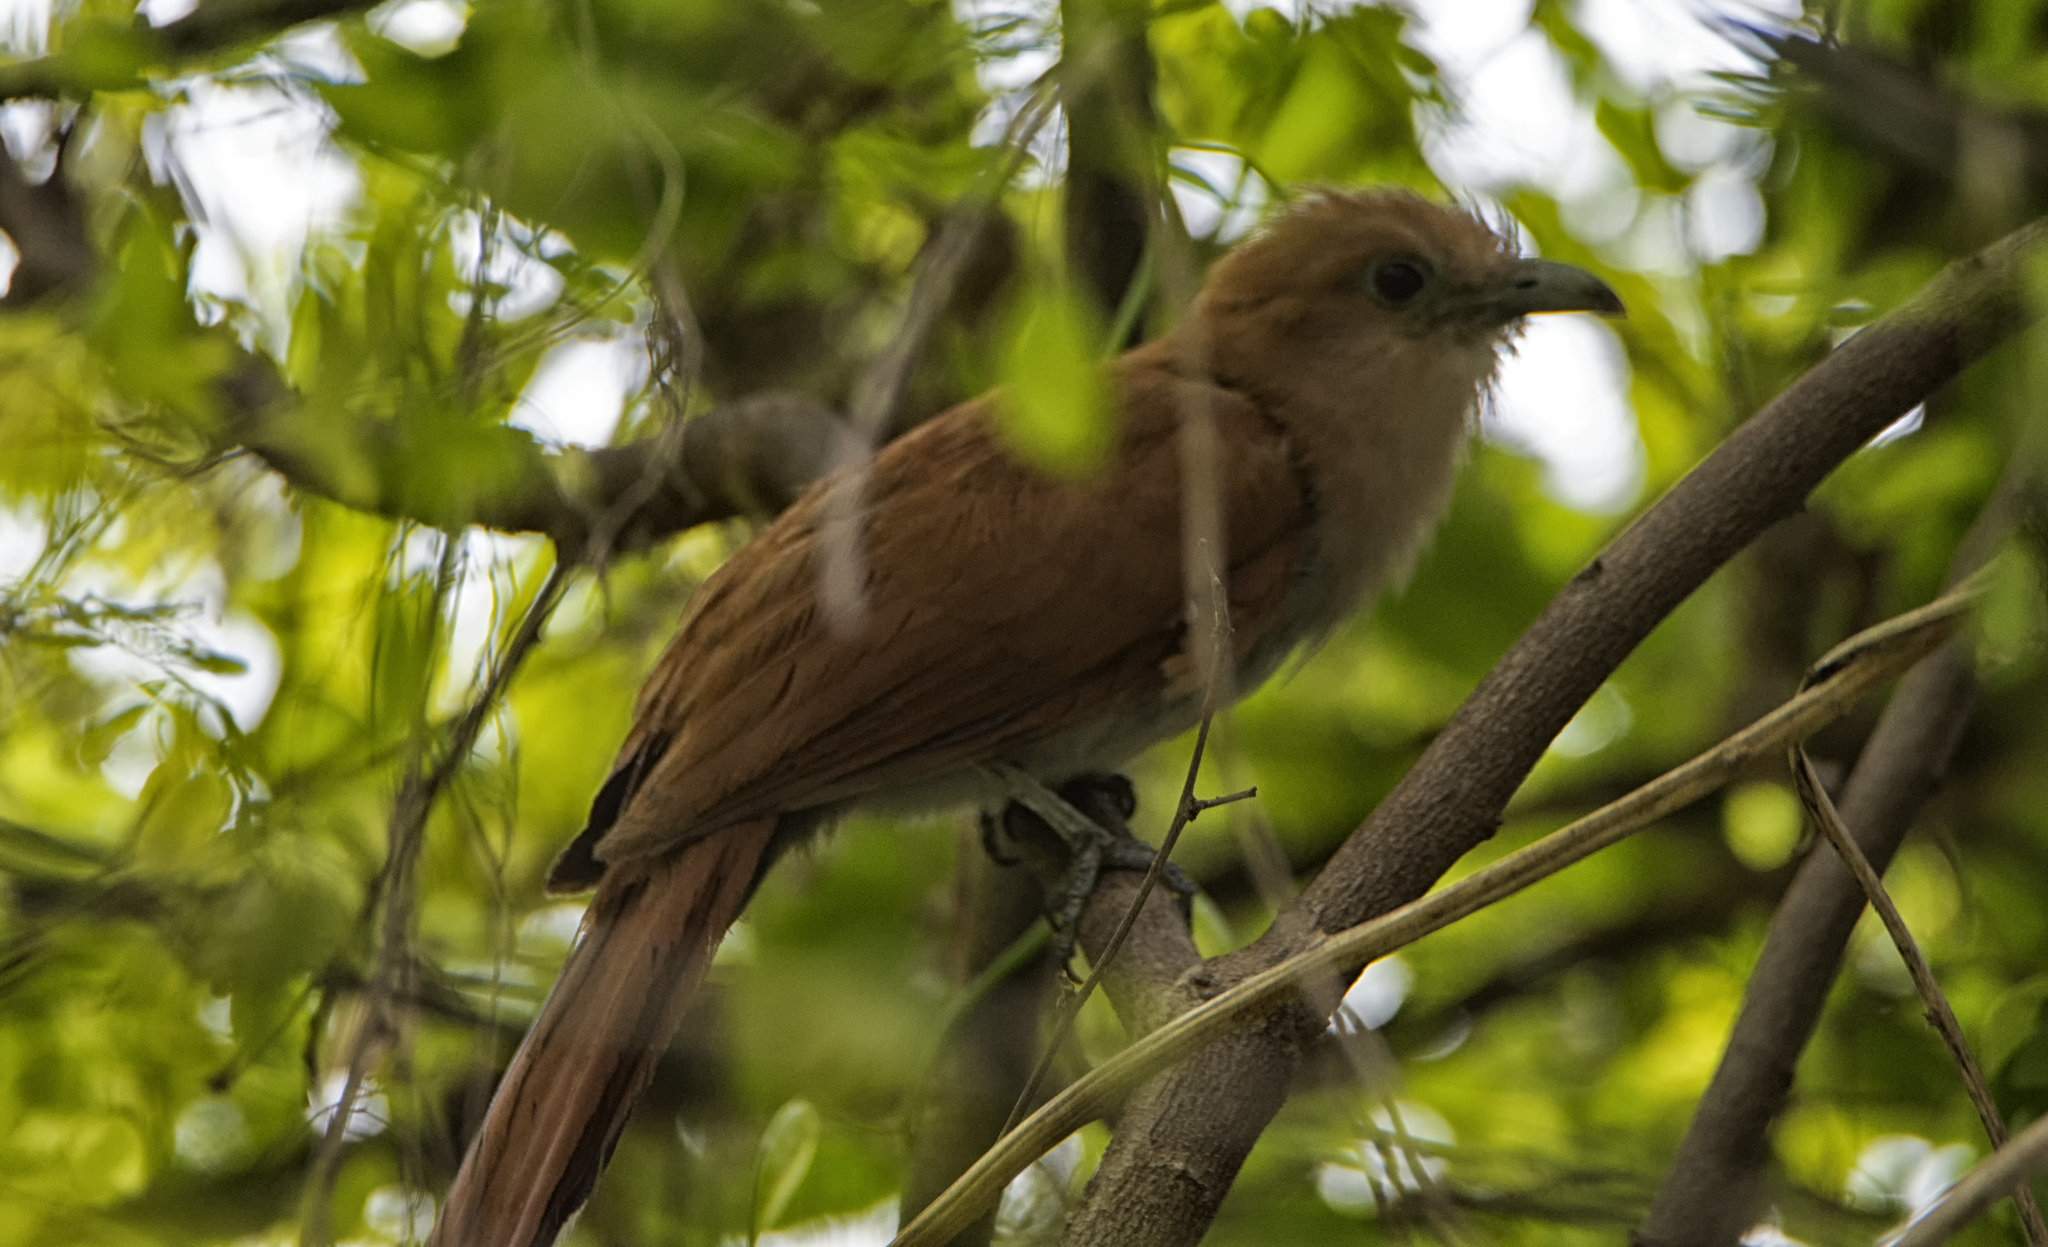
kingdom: Animalia
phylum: Chordata
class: Aves
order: Cuculiformes
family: Cuculidae
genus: Piaya
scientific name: Piaya cayana
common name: Squirrel cuckoo
